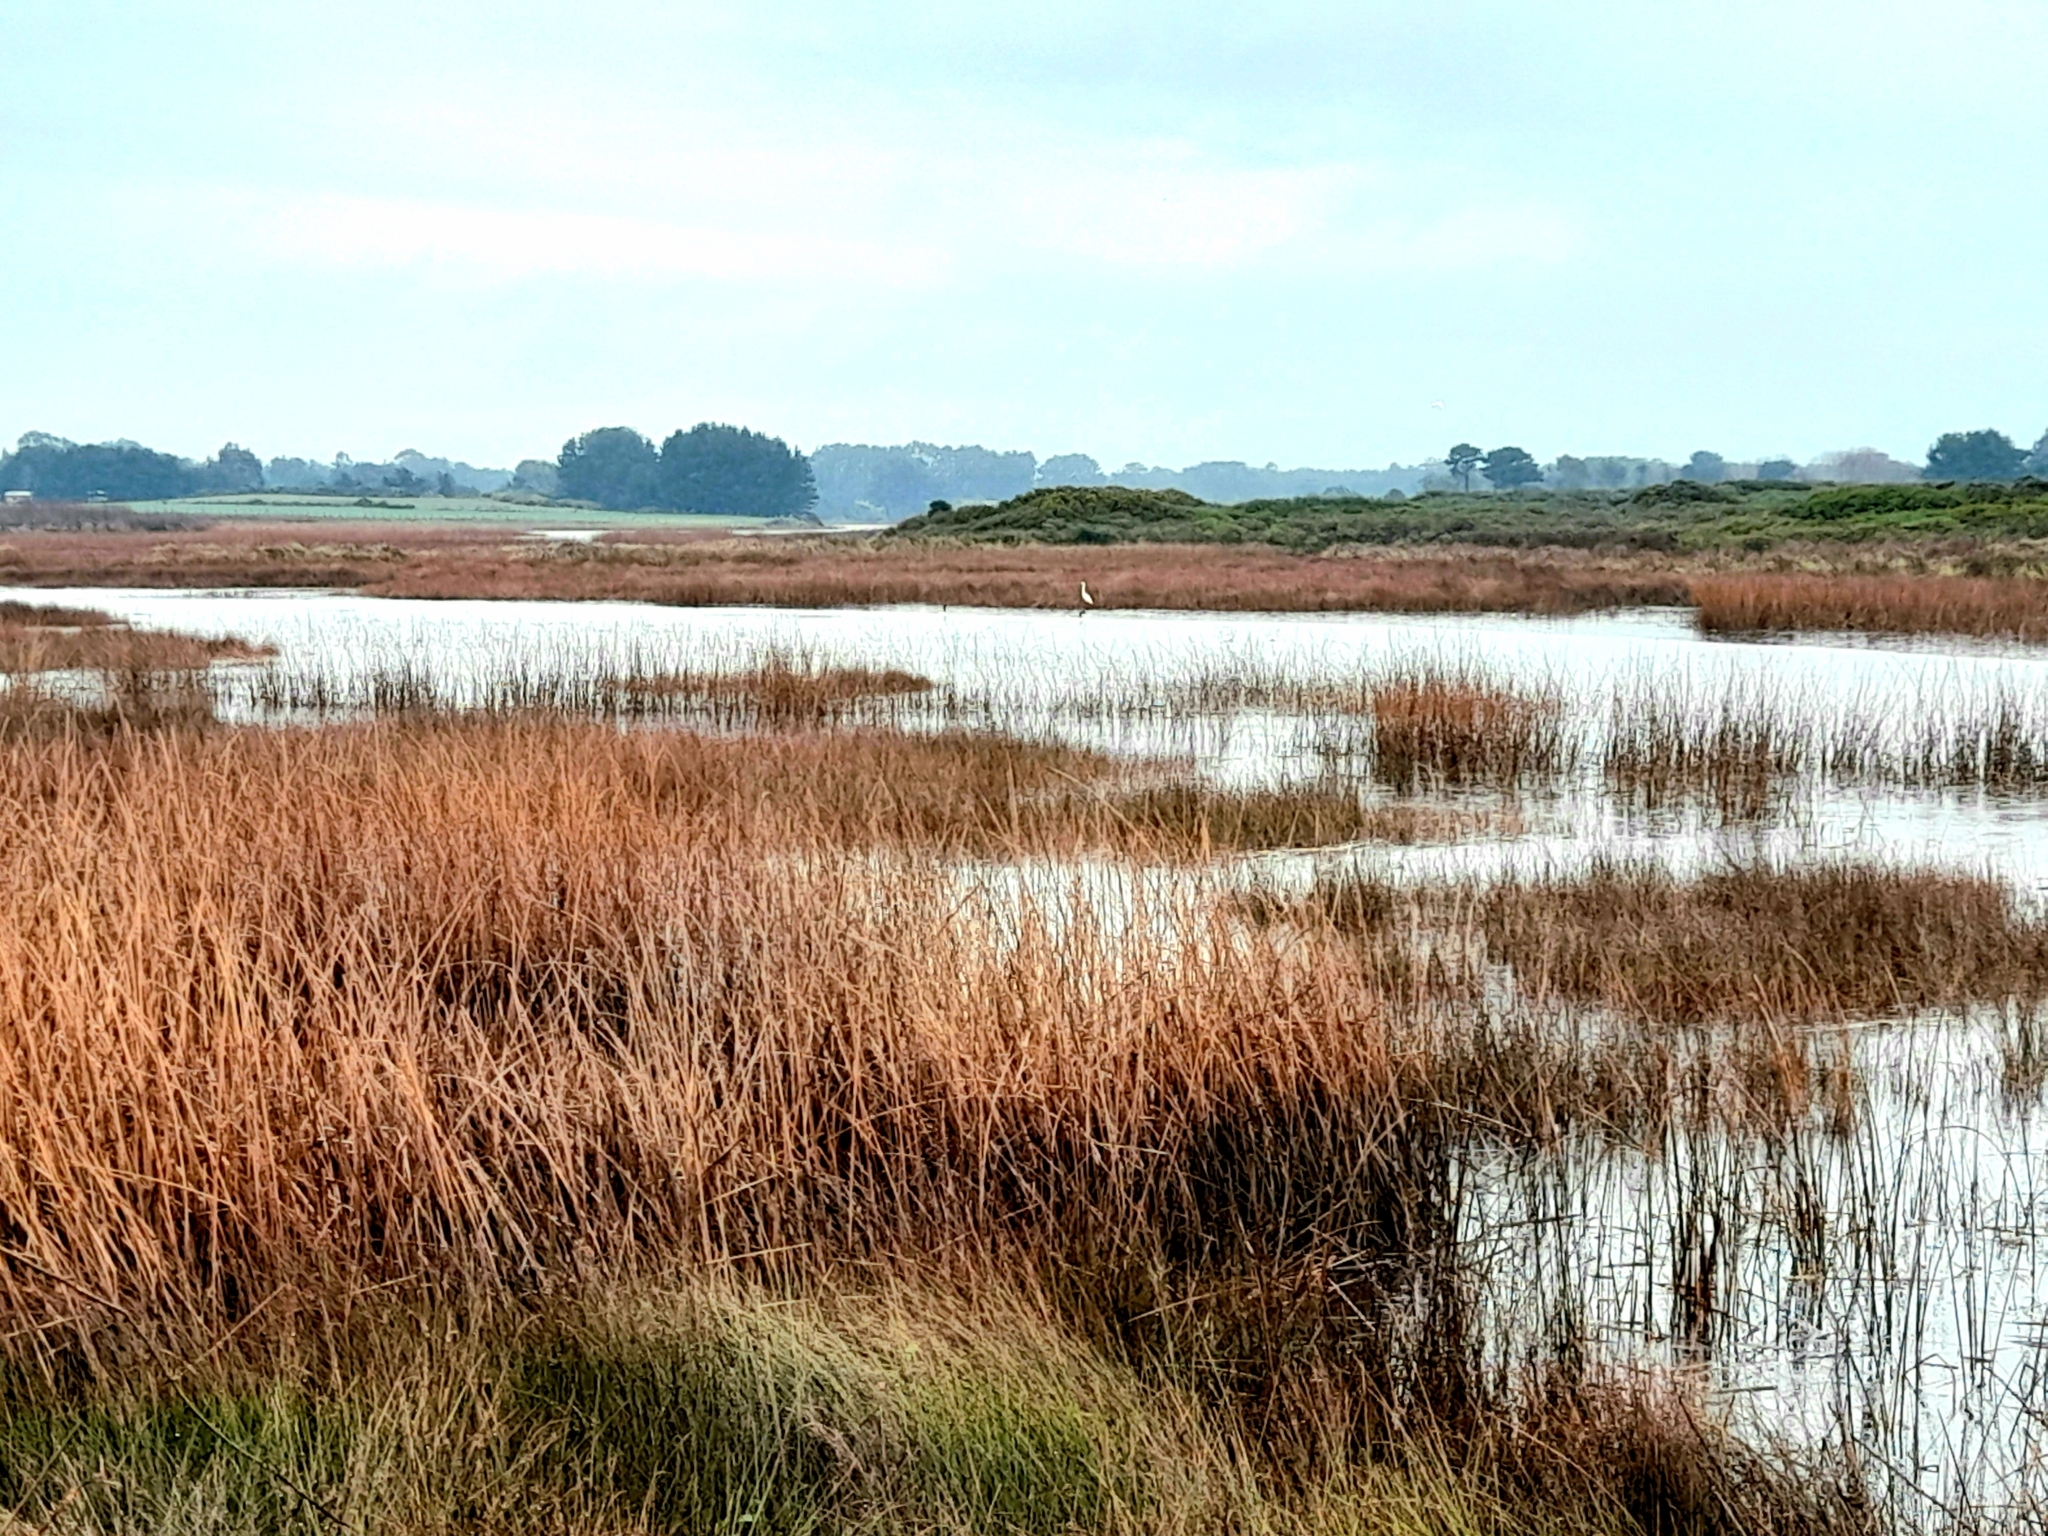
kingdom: Animalia
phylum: Chordata
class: Aves
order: Pelecaniformes
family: Ardeidae
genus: Ardea
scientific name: Ardea alba
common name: Great egret
